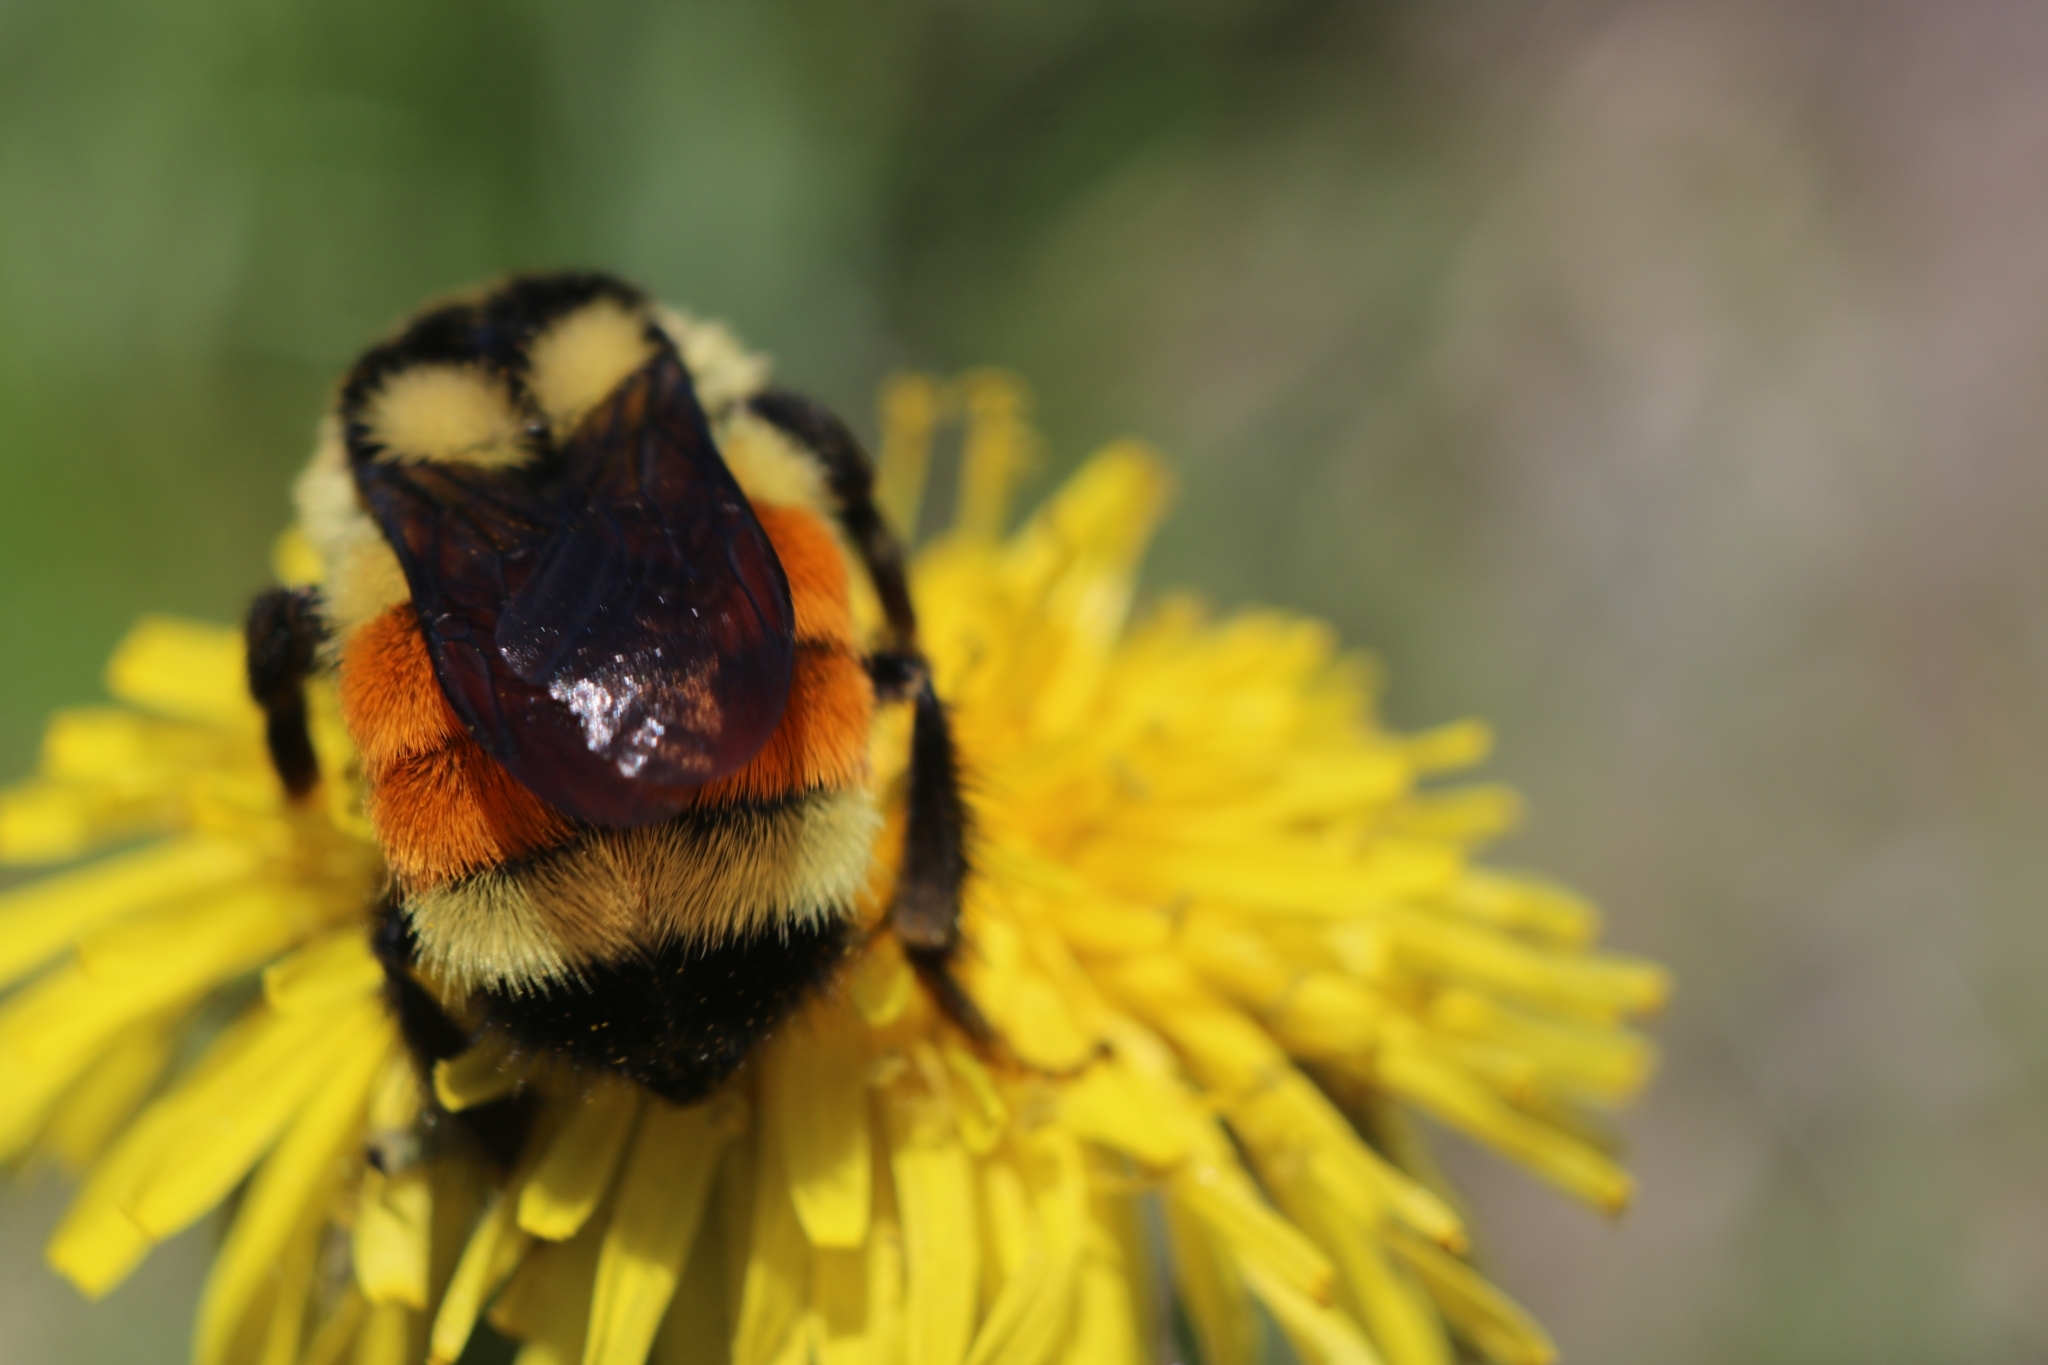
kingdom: Animalia
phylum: Arthropoda
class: Insecta
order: Hymenoptera
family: Apidae
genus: Bombus
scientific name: Bombus ternarius
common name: Tri-colored bumble bee
